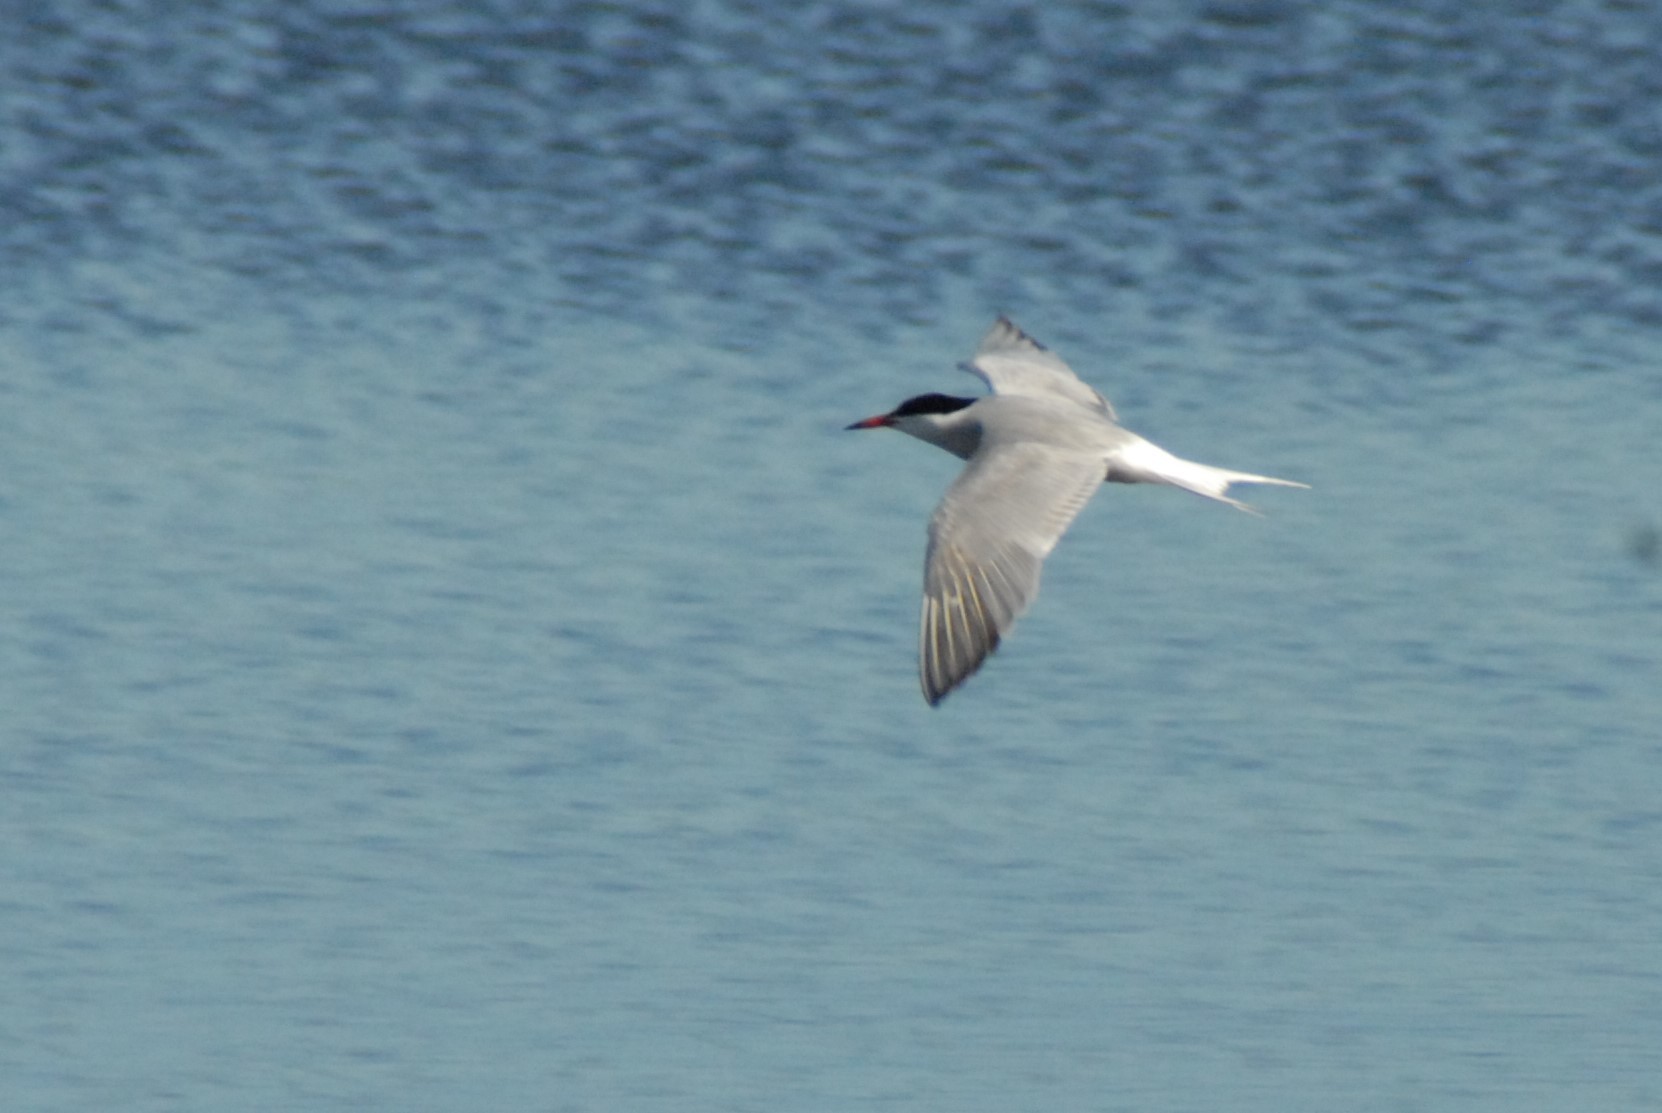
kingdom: Animalia
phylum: Chordata
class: Aves
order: Charadriiformes
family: Laridae
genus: Sterna
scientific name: Sterna hirundo
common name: Common tern
